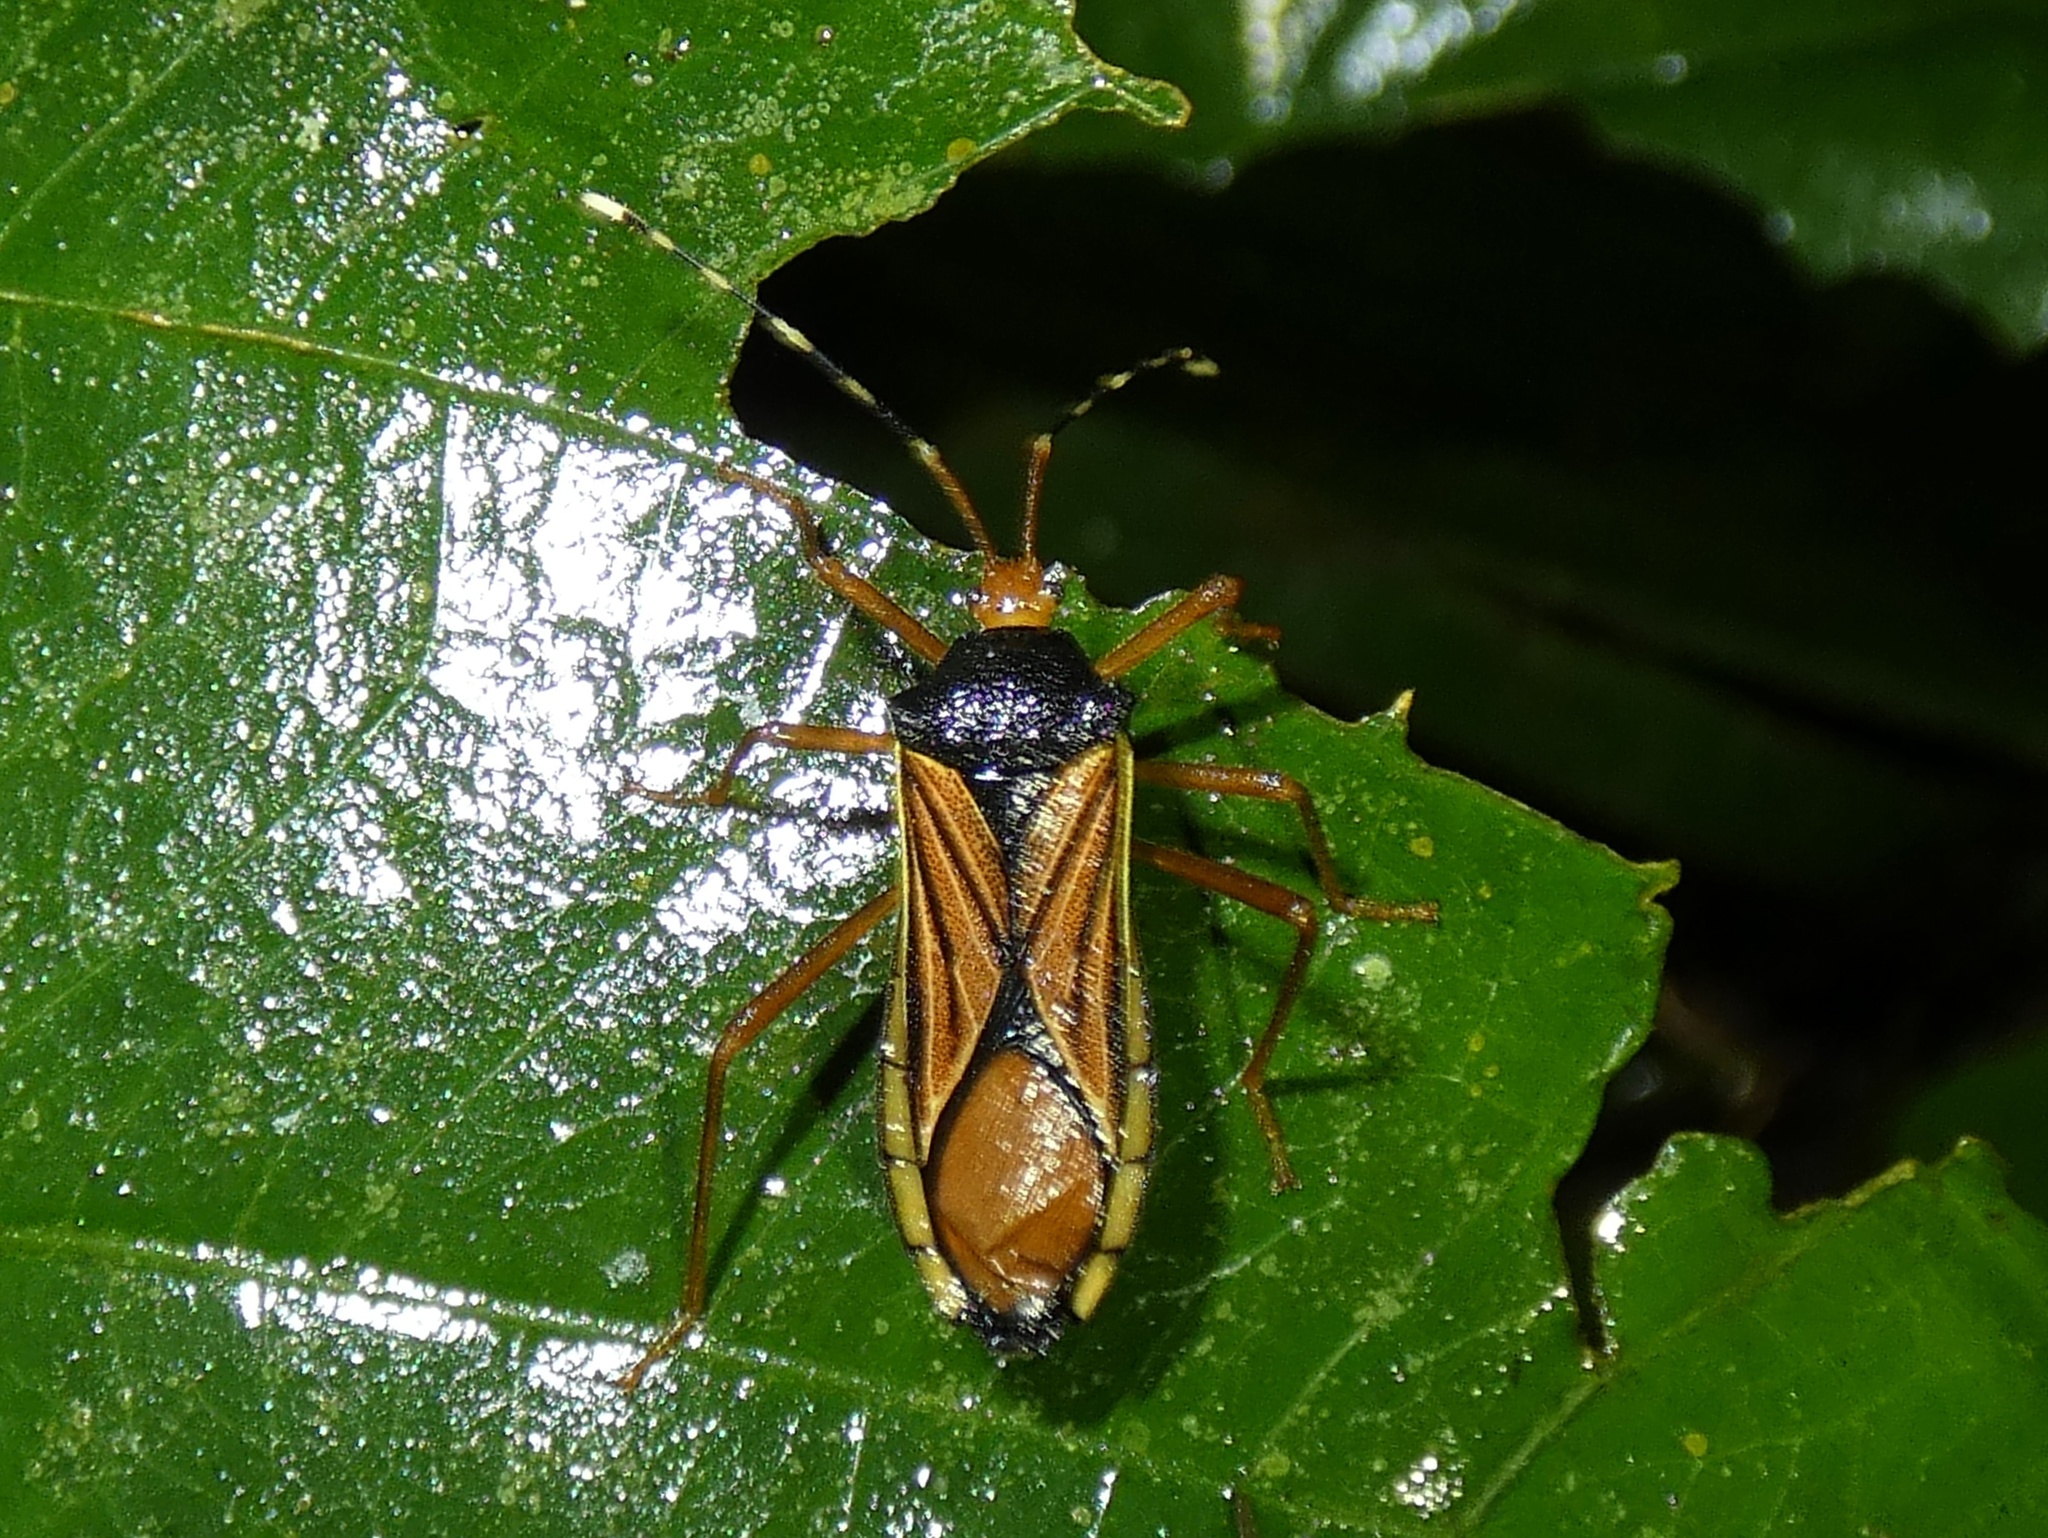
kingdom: Animalia
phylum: Arthropoda
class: Insecta
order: Hemiptera
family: Coreidae
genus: Anasa
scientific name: Anasa nigricollis
